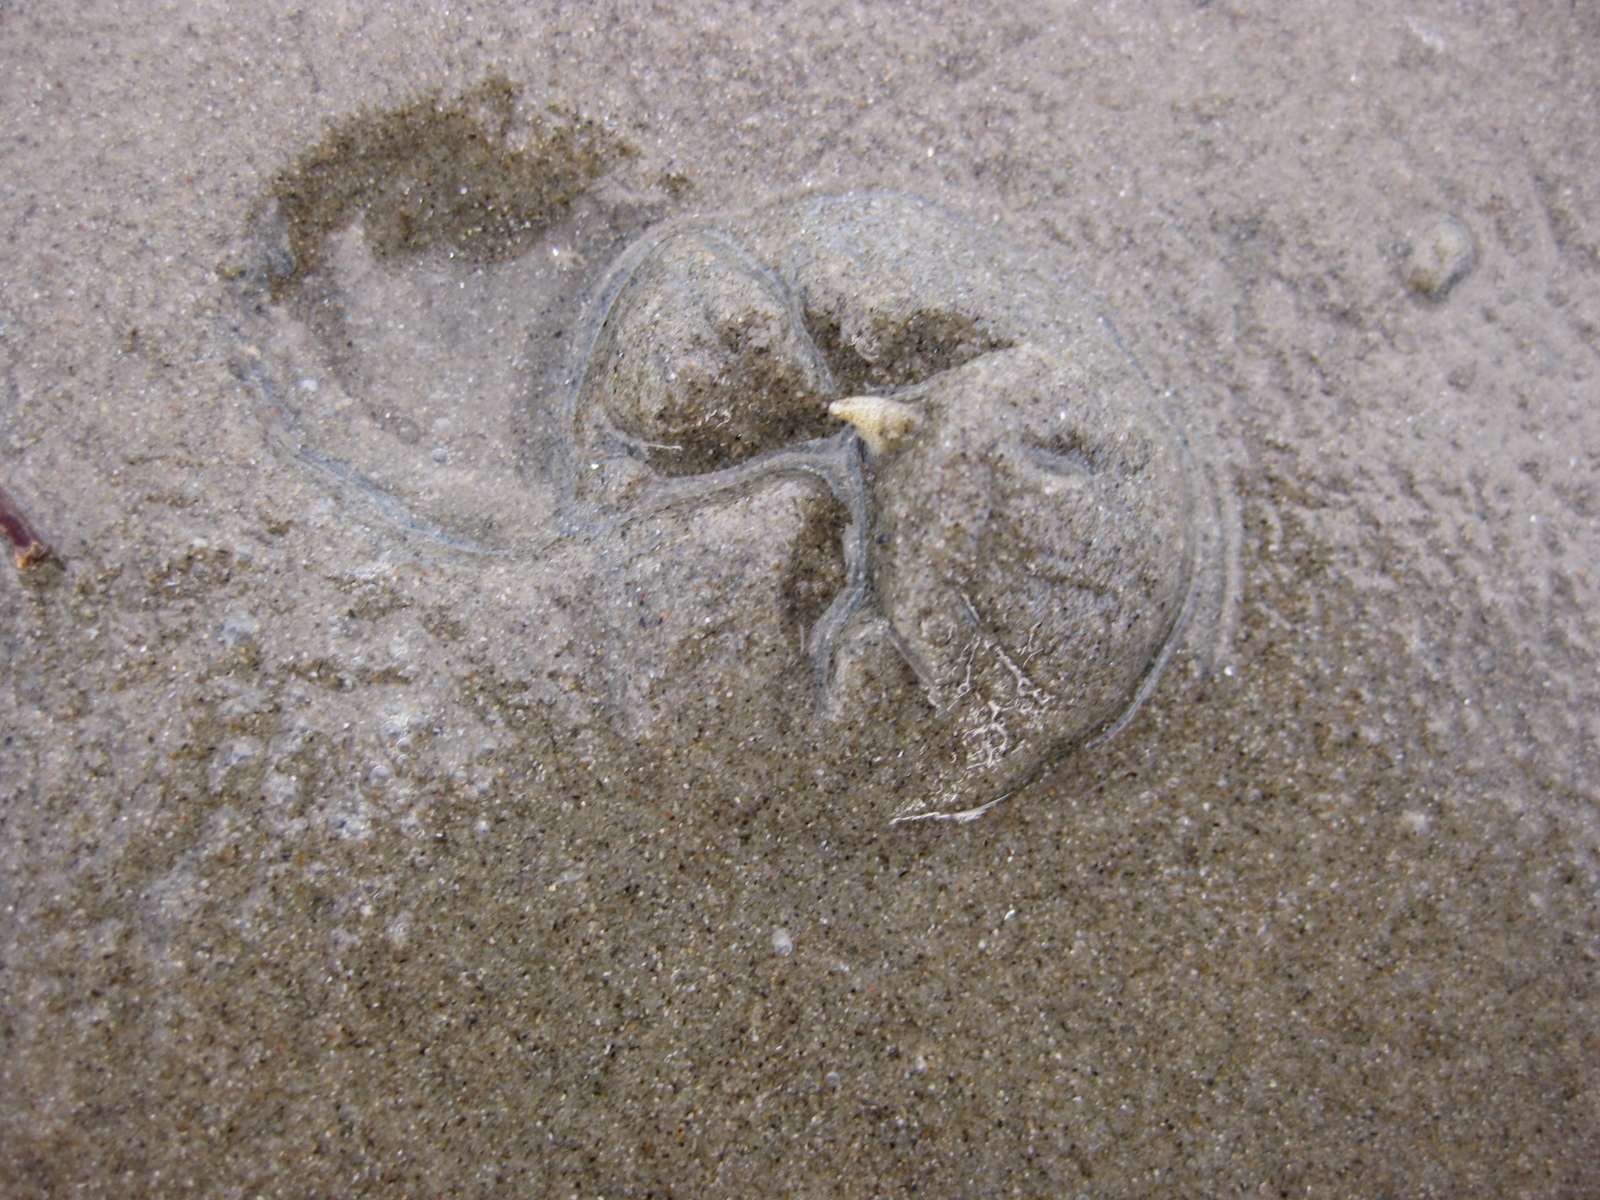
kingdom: Animalia
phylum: Mollusca
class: Gastropoda
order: Neogastropoda
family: Ancillariidae
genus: Amalda
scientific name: Amalda australis
